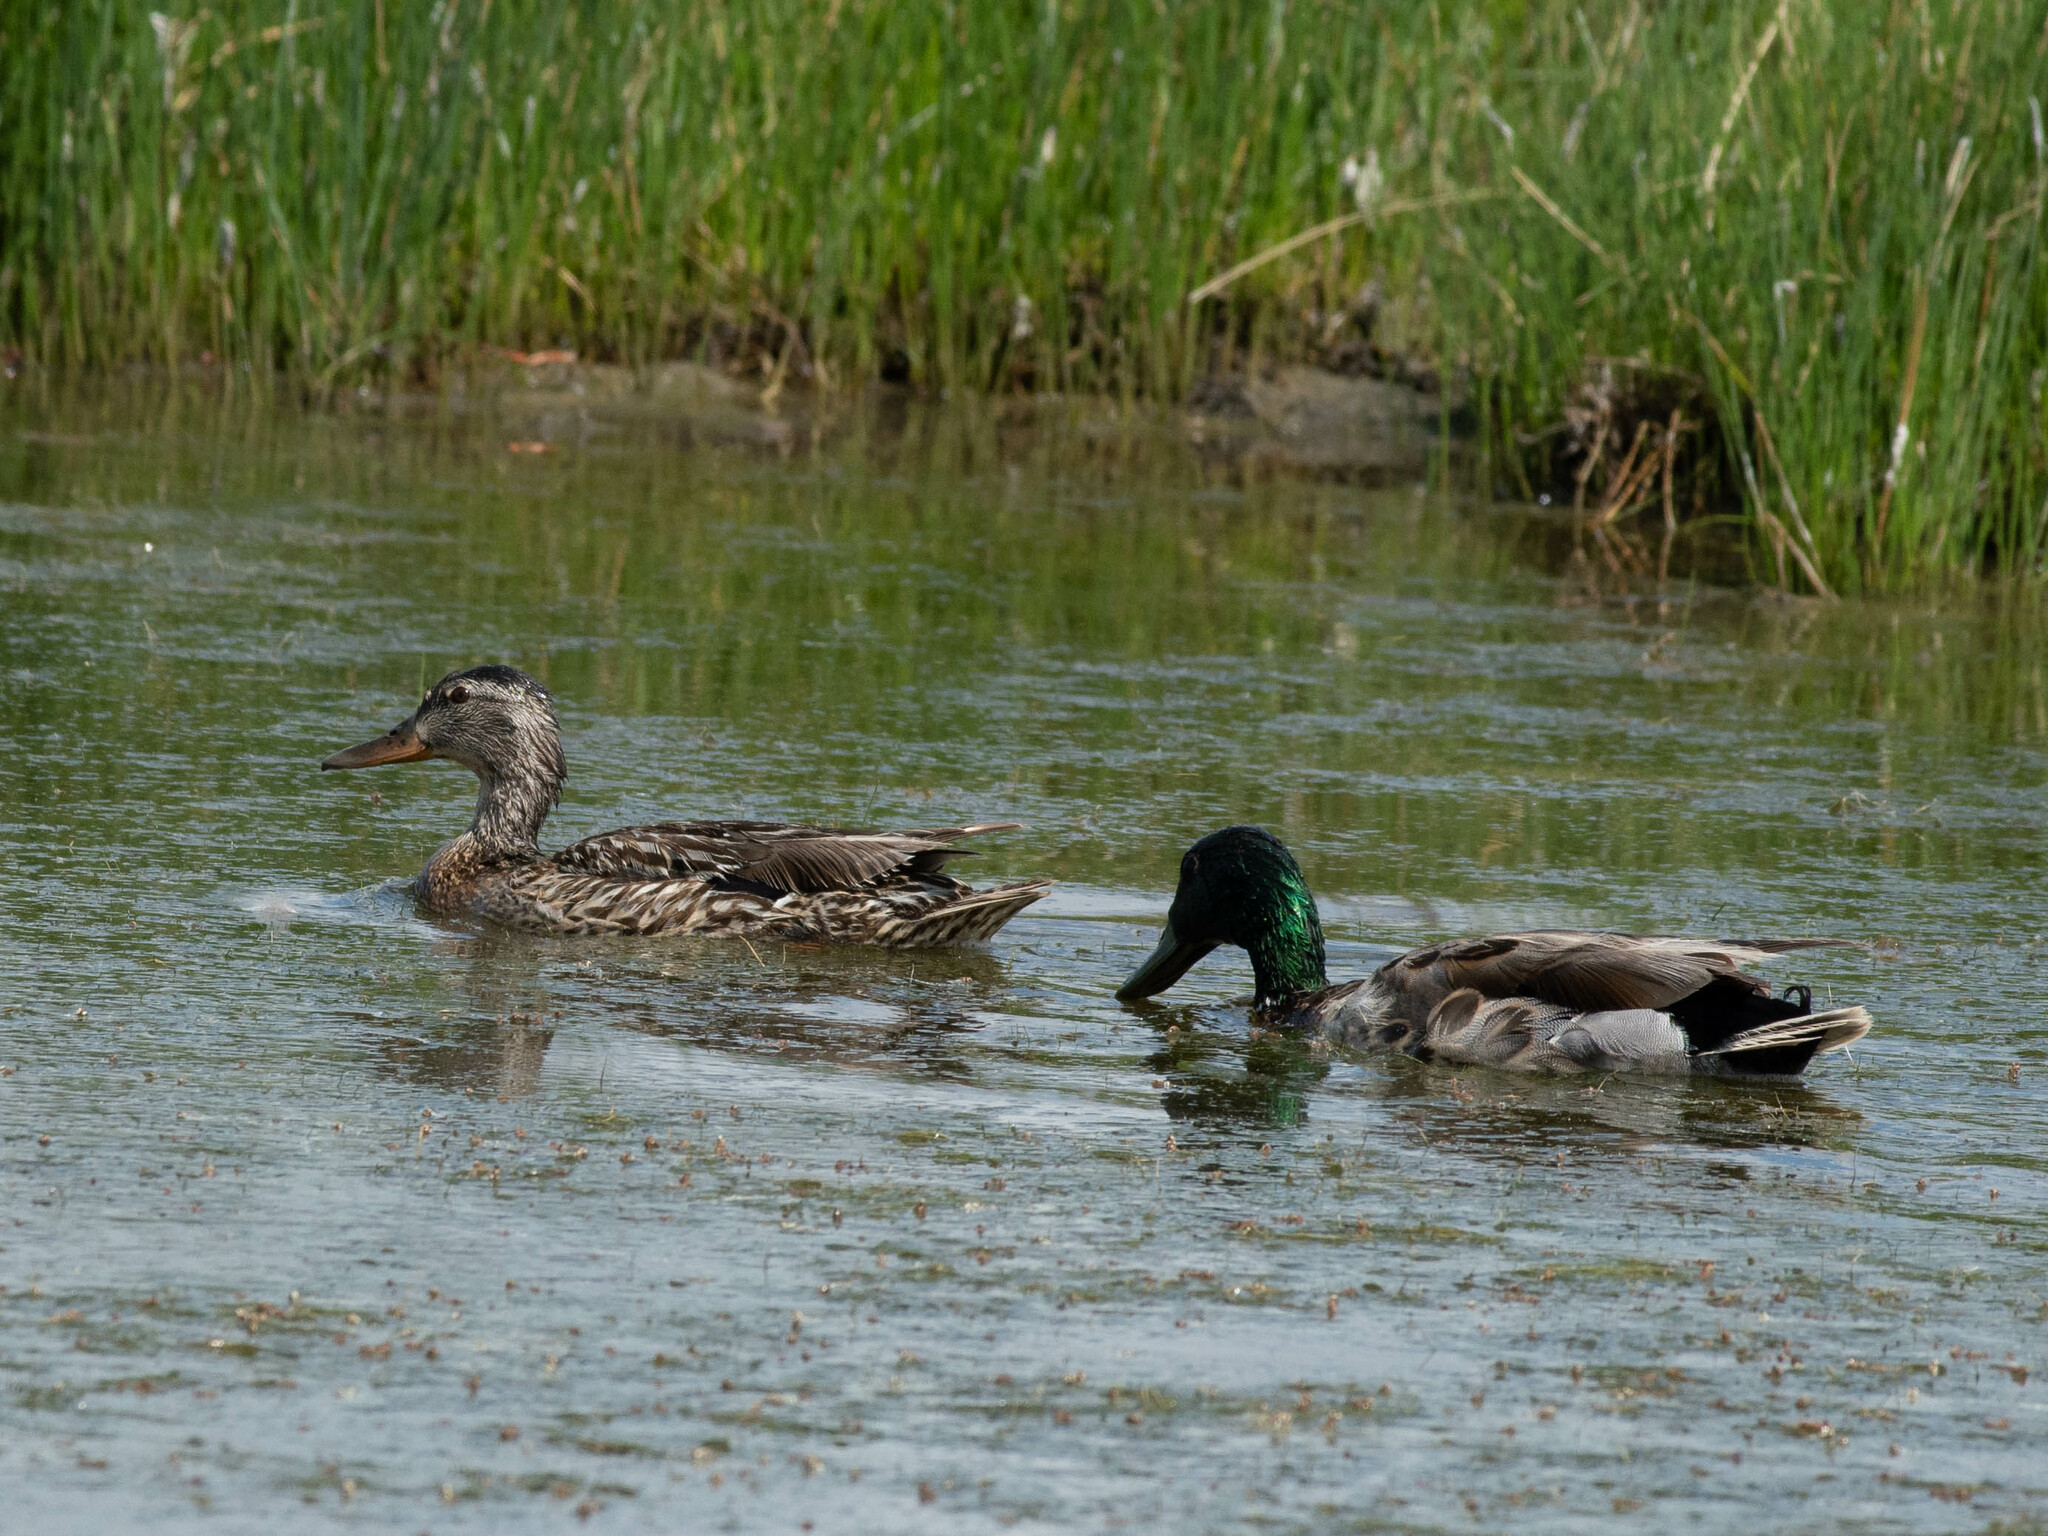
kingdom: Animalia
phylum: Chordata
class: Aves
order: Anseriformes
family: Anatidae
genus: Anas
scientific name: Anas platyrhynchos
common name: Mallard
